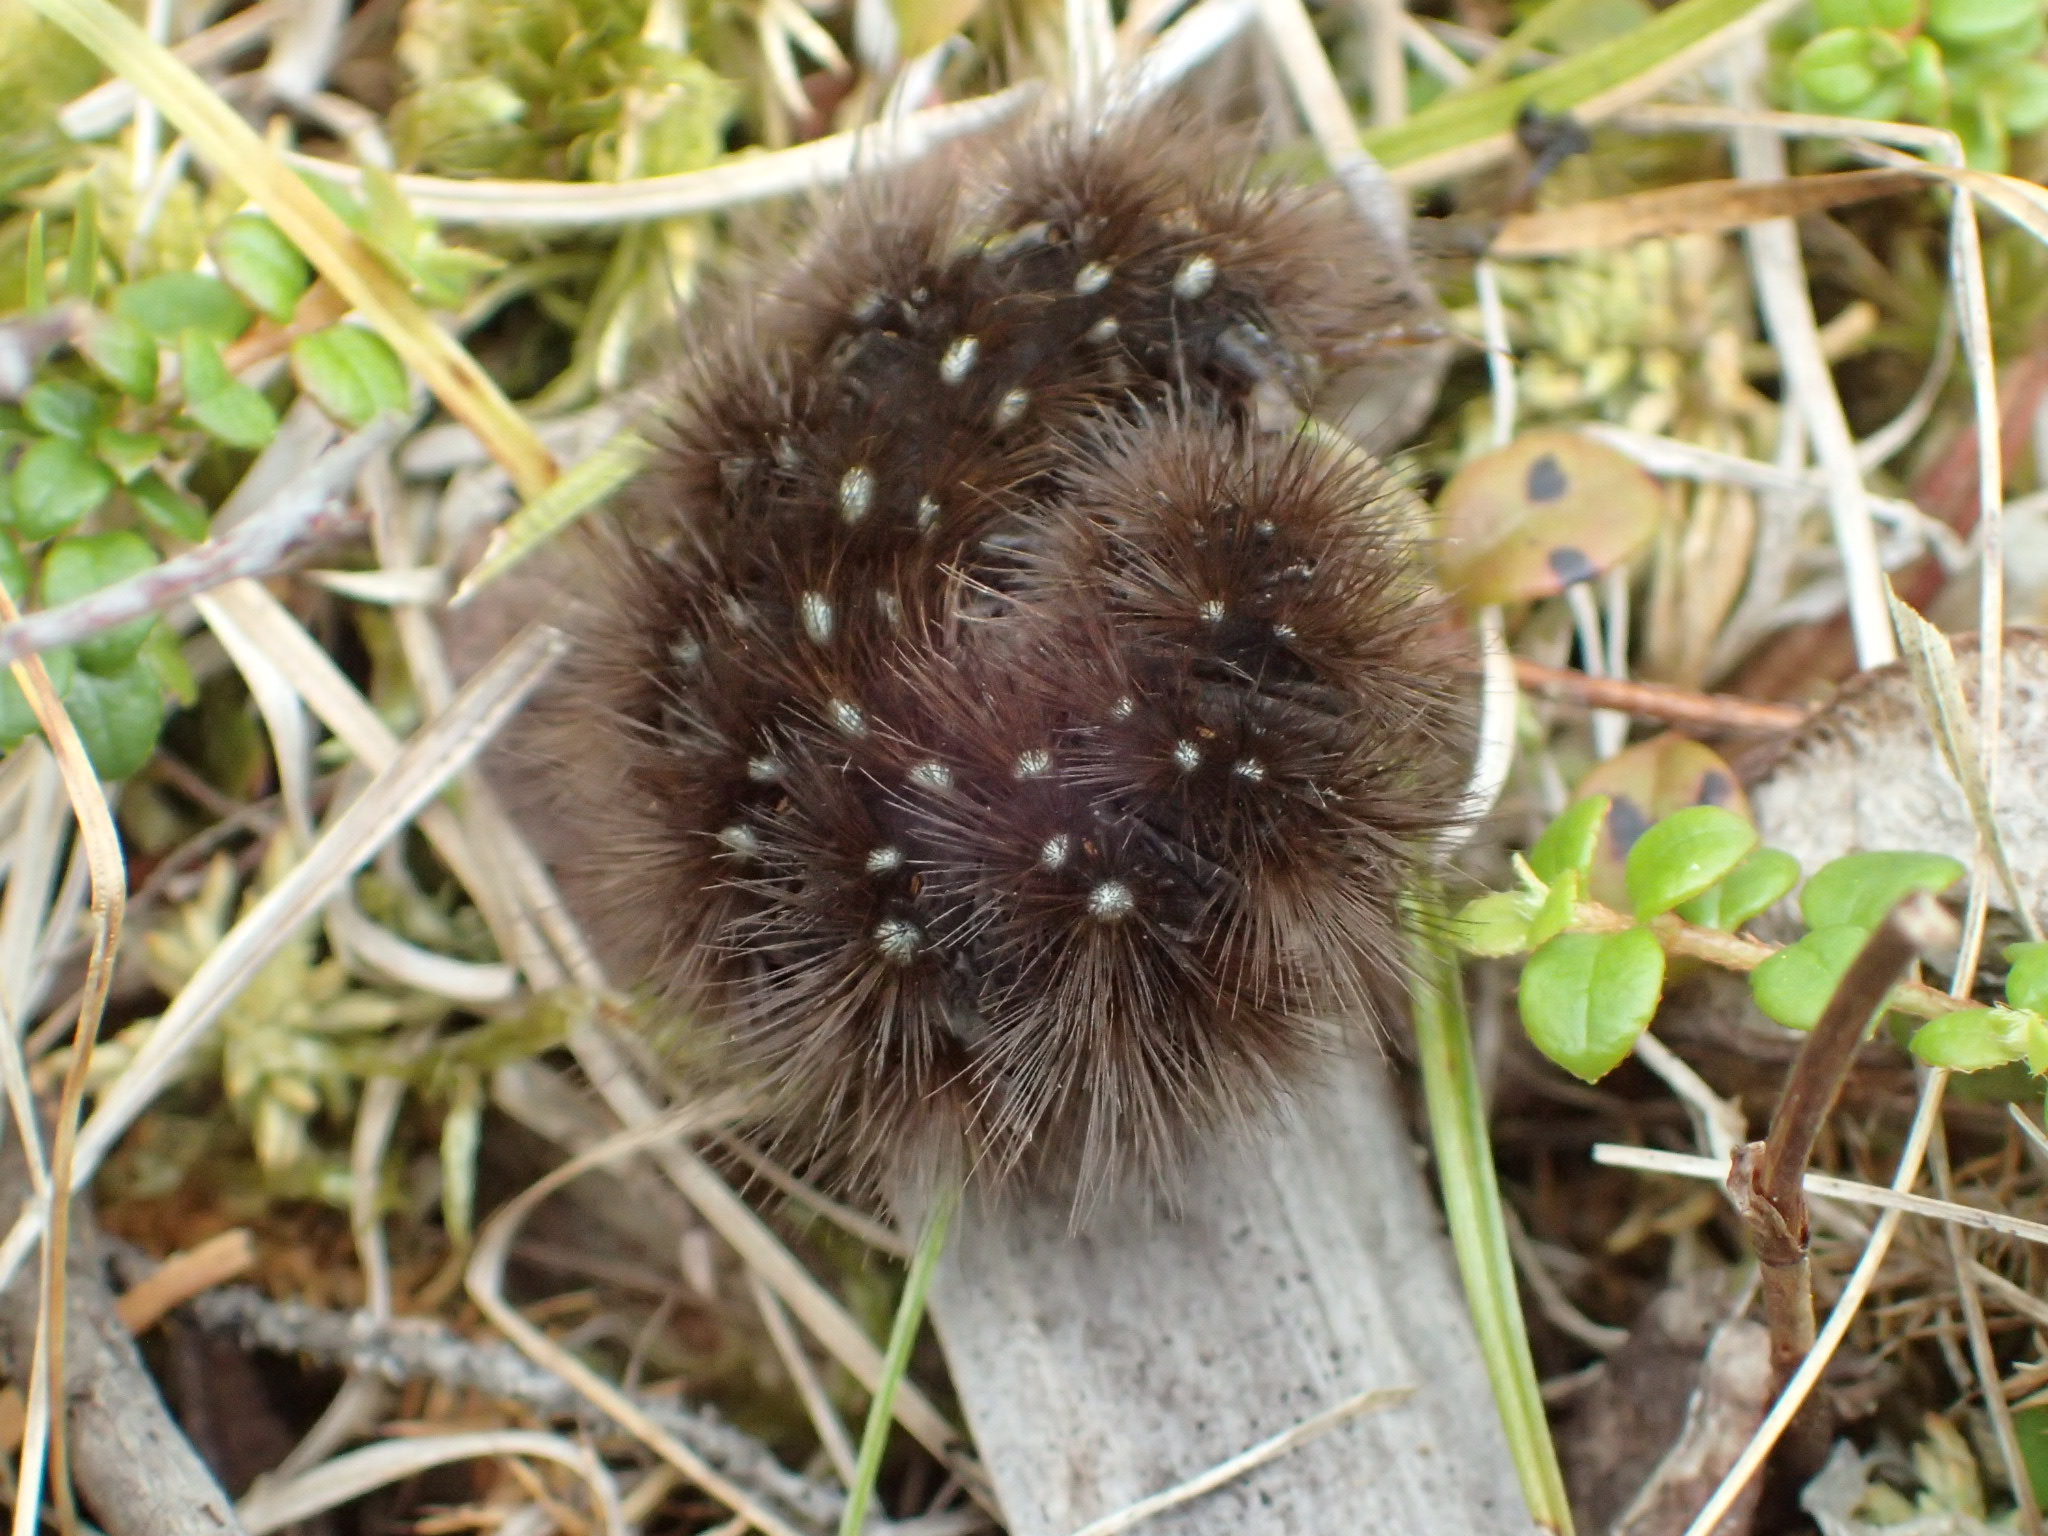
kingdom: Animalia
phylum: Arthropoda
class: Insecta
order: Lepidoptera
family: Erebidae
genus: Arctia
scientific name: Arctia parthenos
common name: St. lawrence tiger moth
